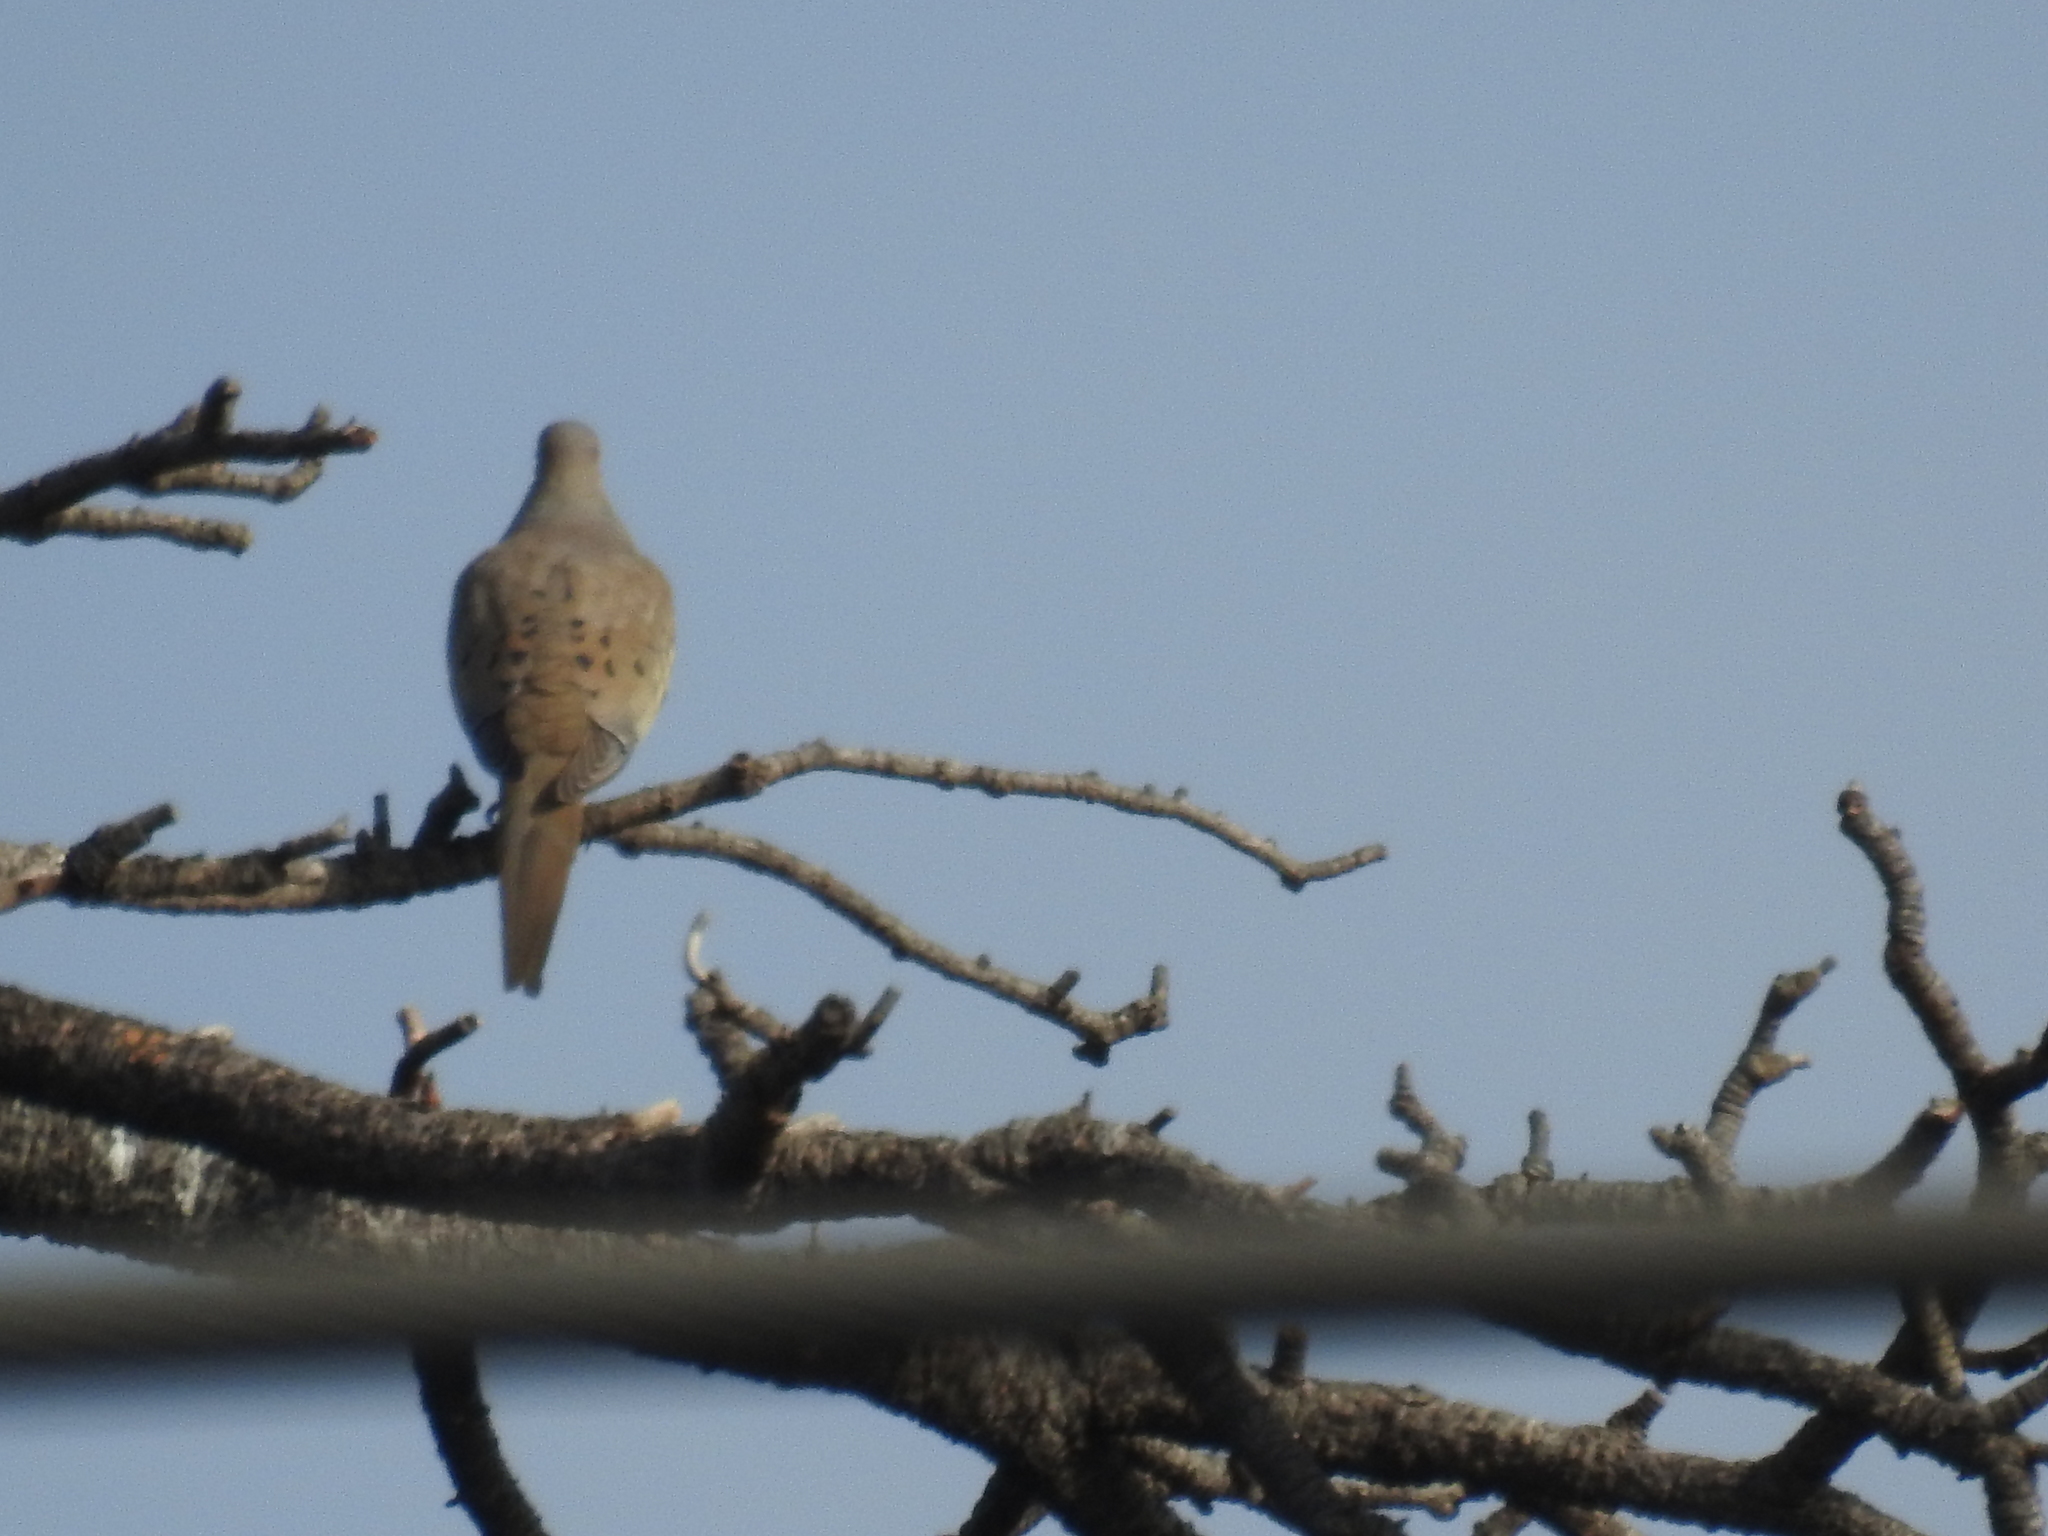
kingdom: Animalia
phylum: Chordata
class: Aves
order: Columbiformes
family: Columbidae
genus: Zenaida
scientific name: Zenaida macroura
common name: Mourning dove
